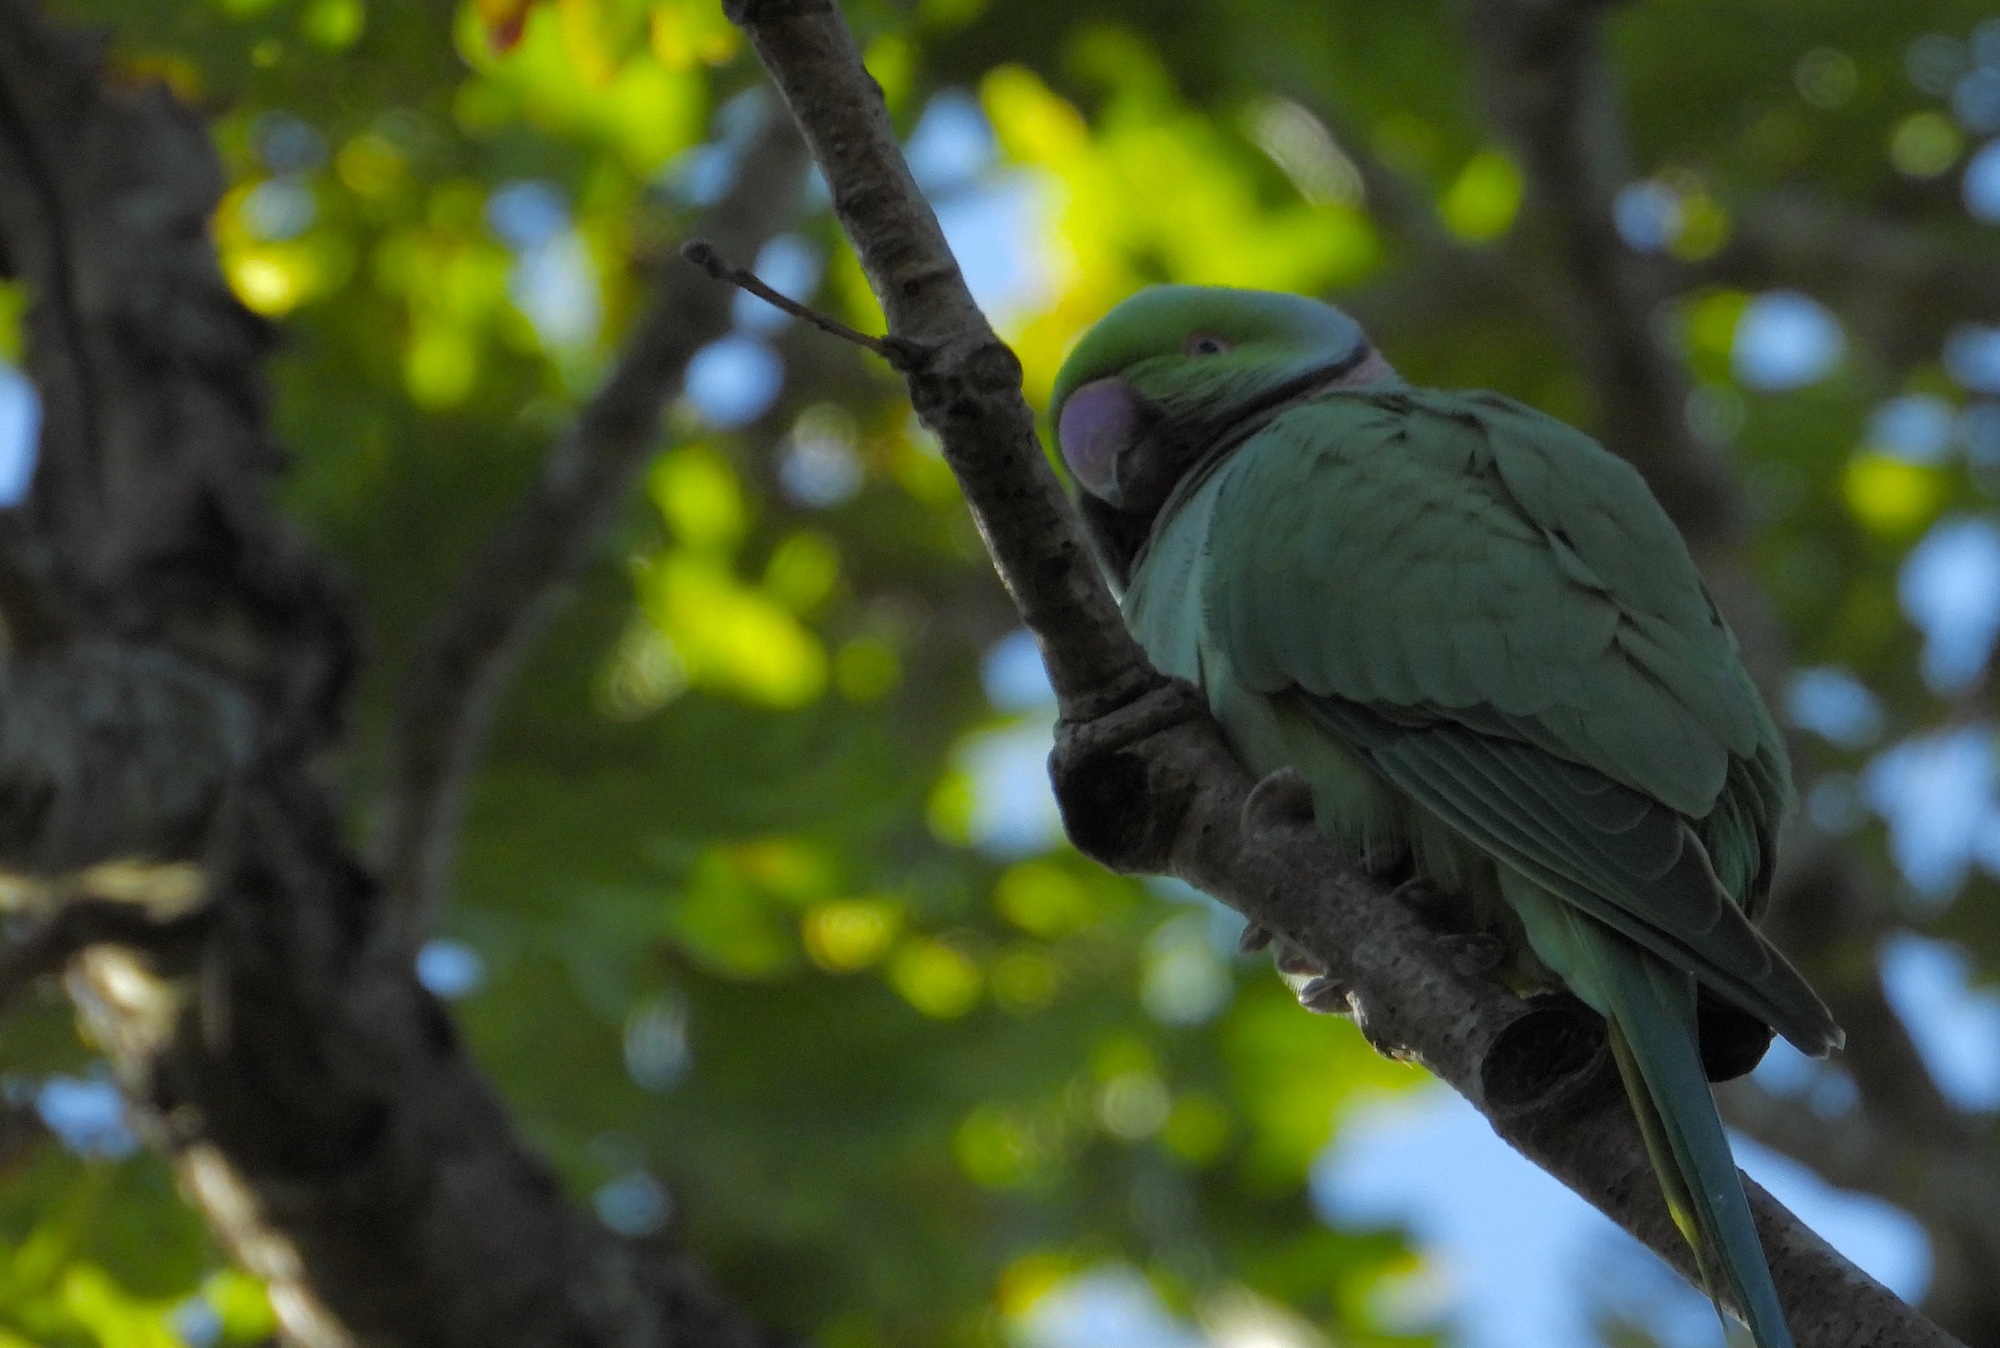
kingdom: Animalia
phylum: Chordata
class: Aves
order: Psittaciformes
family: Psittacidae
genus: Psittacula
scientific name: Psittacula krameri
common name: Rose-ringed parakeet
